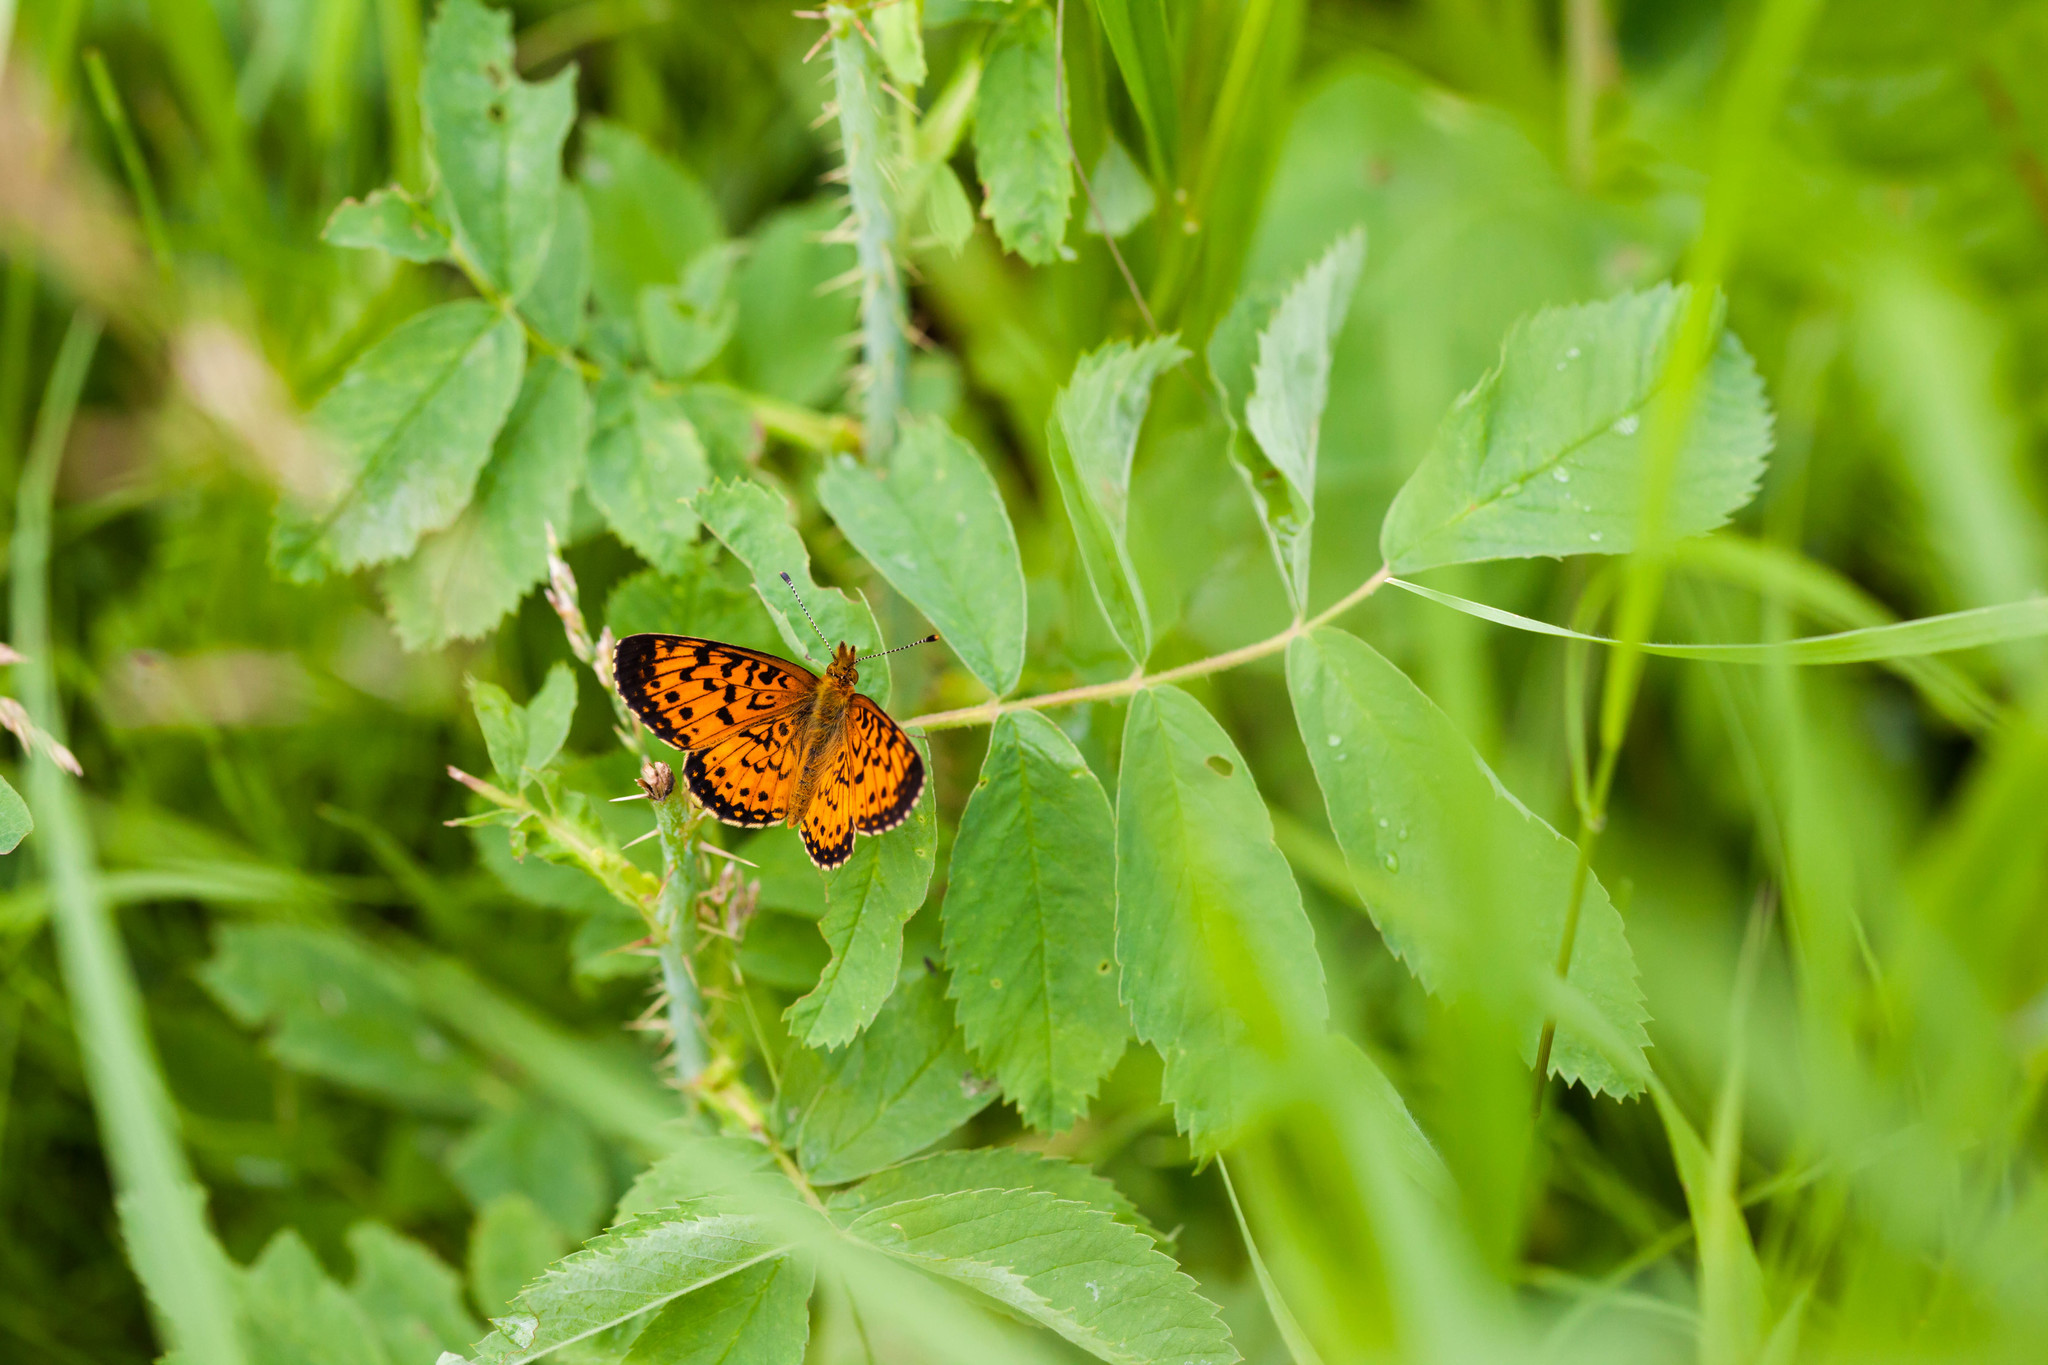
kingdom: Animalia
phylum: Arthropoda
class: Insecta
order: Lepidoptera
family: Nymphalidae
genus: Boloria
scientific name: Boloria
